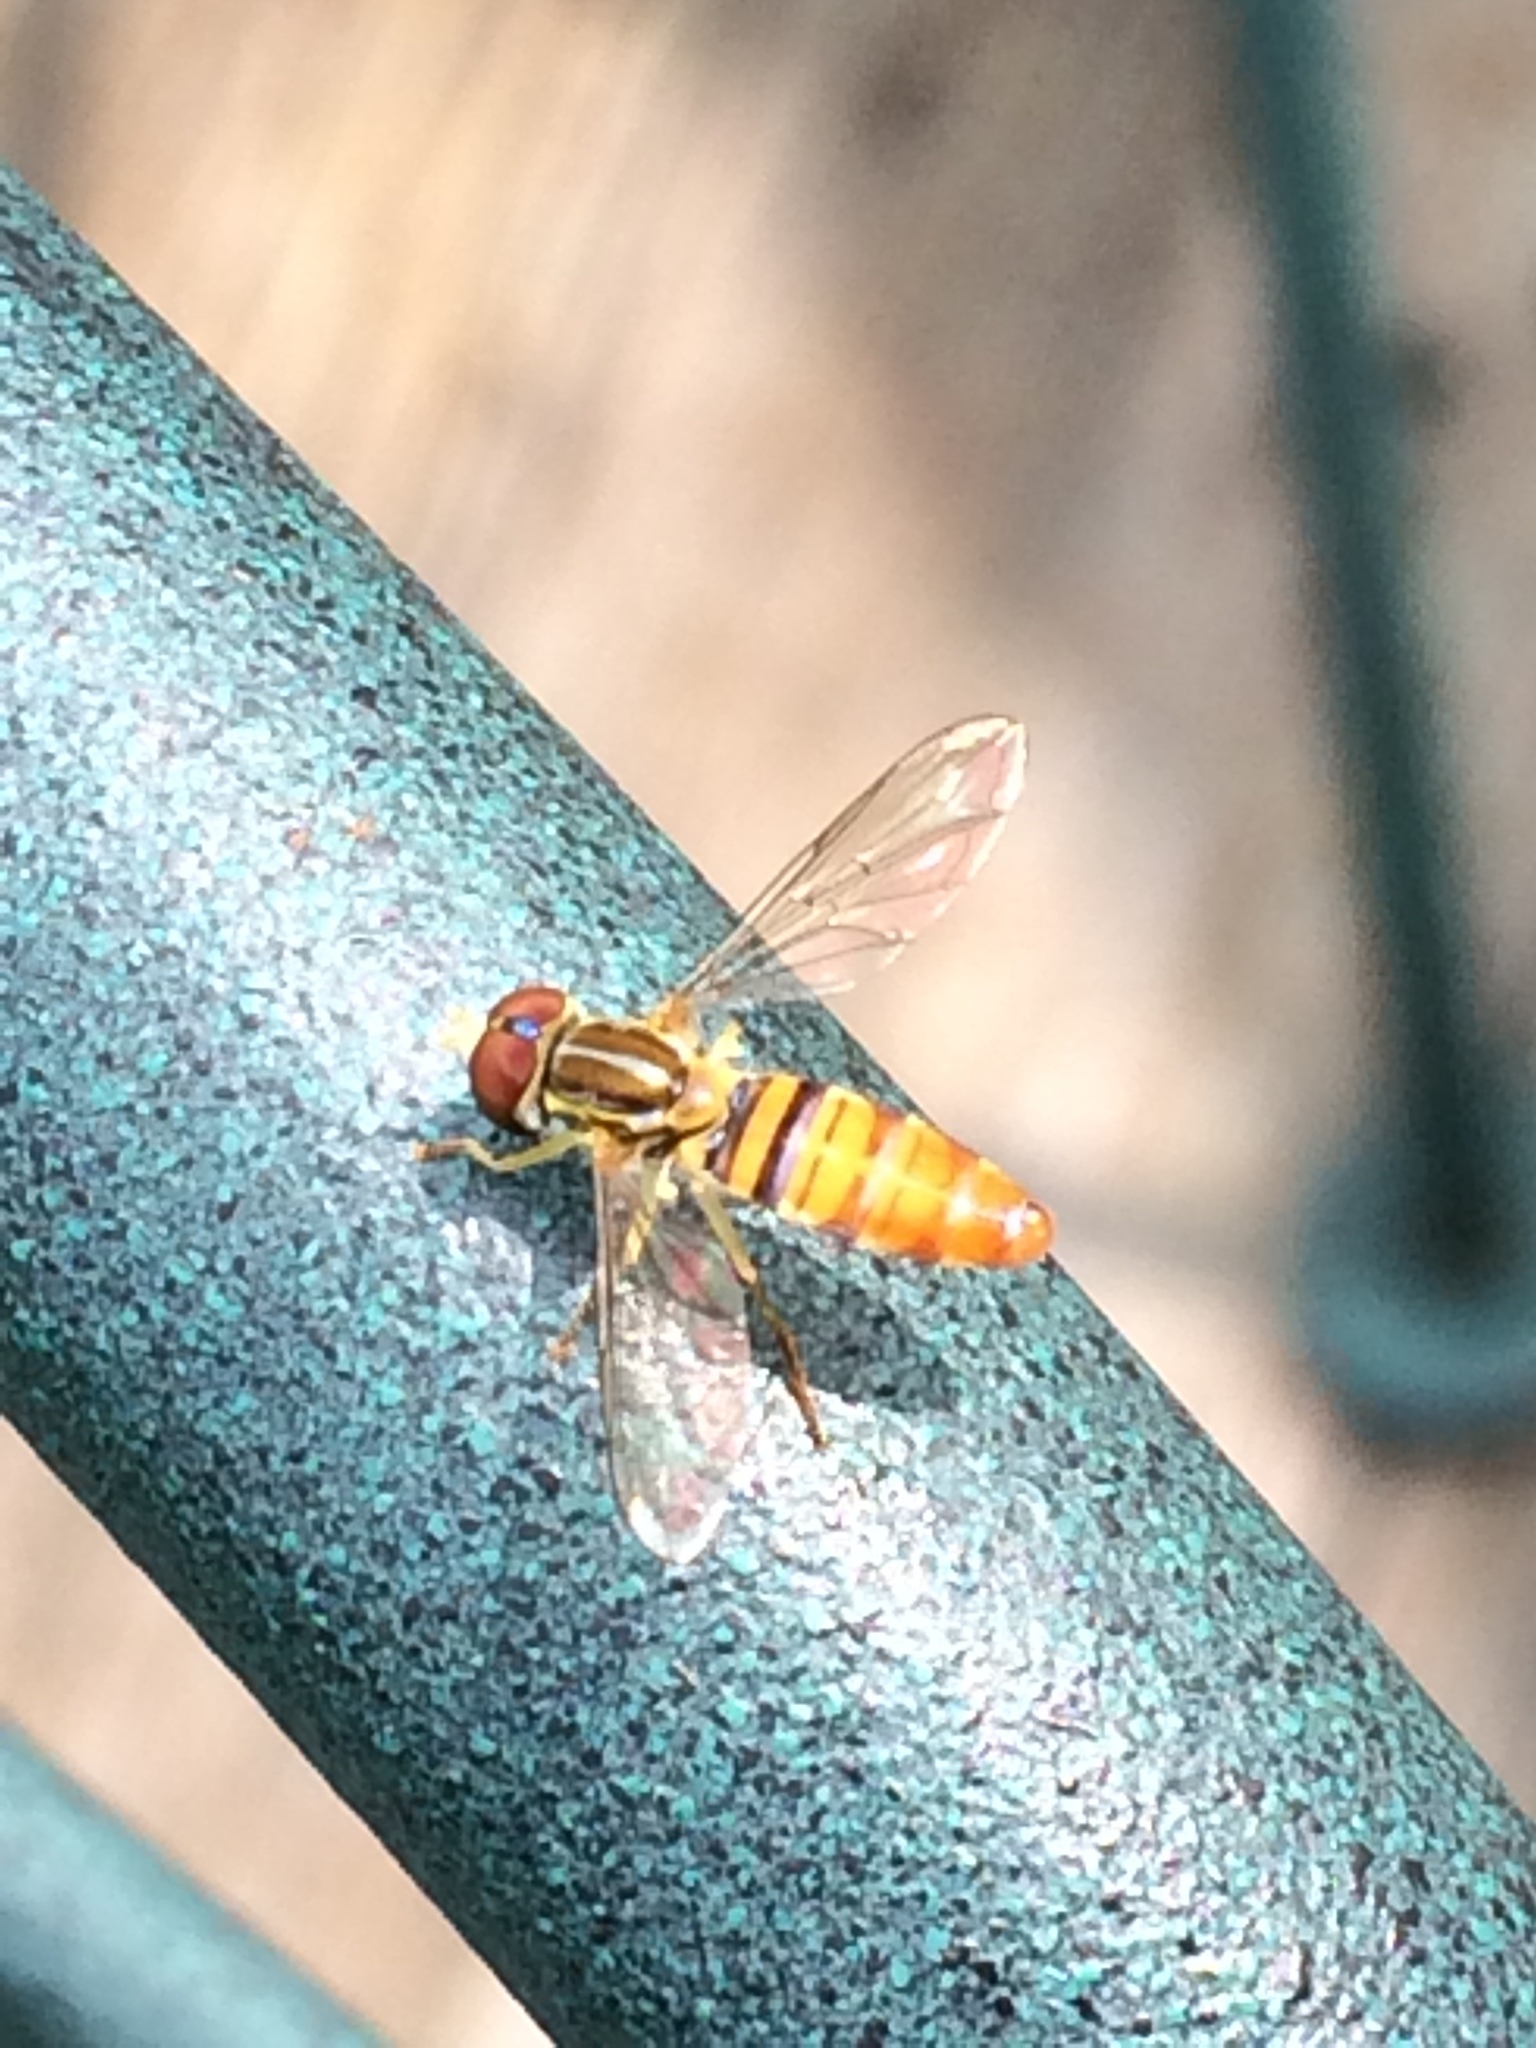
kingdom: Animalia
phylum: Arthropoda
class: Insecta
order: Diptera
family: Syrphidae
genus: Toxomerus
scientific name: Toxomerus politus
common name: Maize calligrapher
